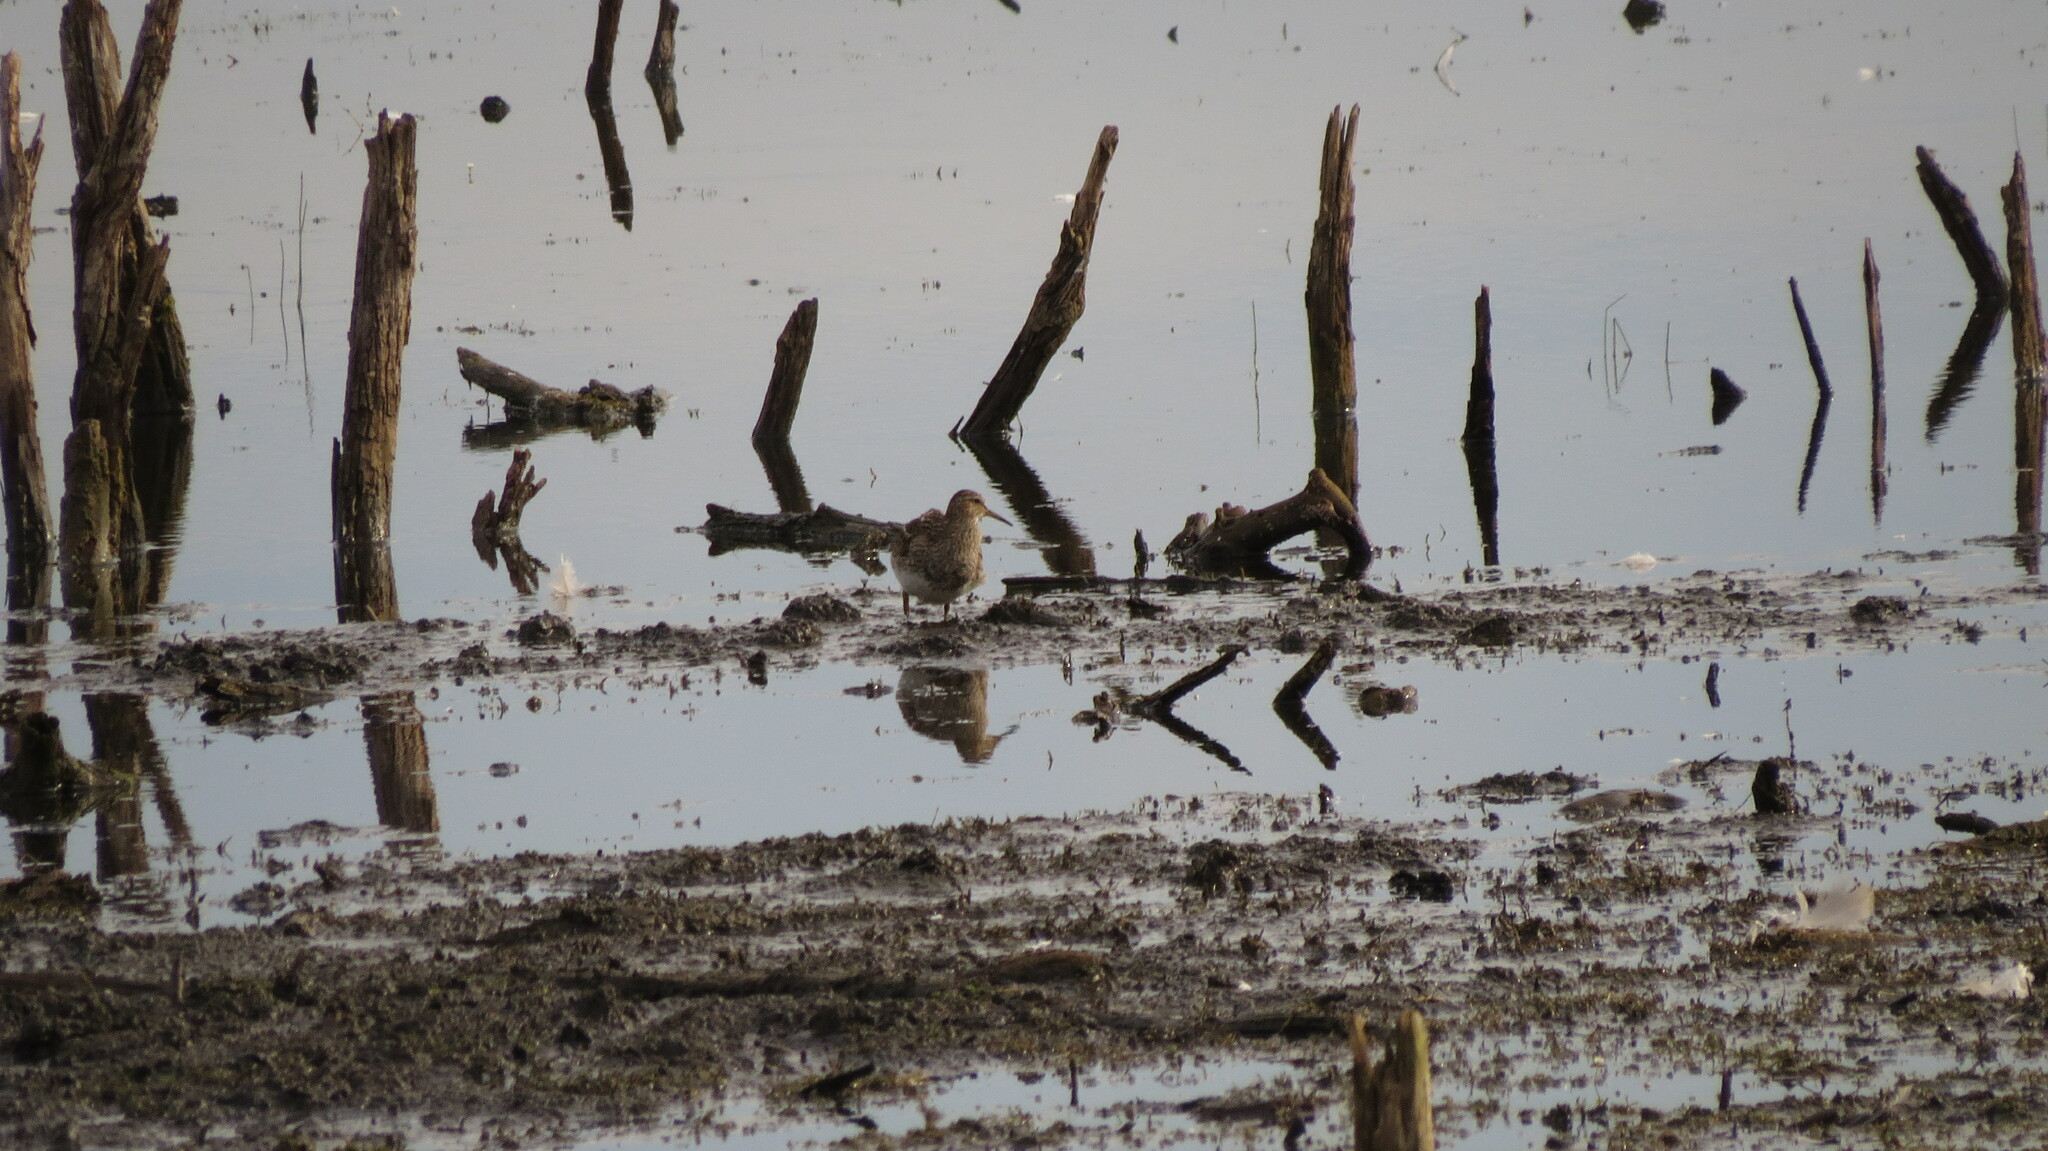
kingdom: Animalia
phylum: Chordata
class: Aves
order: Charadriiformes
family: Scolopacidae
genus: Calidris
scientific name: Calidris melanotos
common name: Pectoral sandpiper
